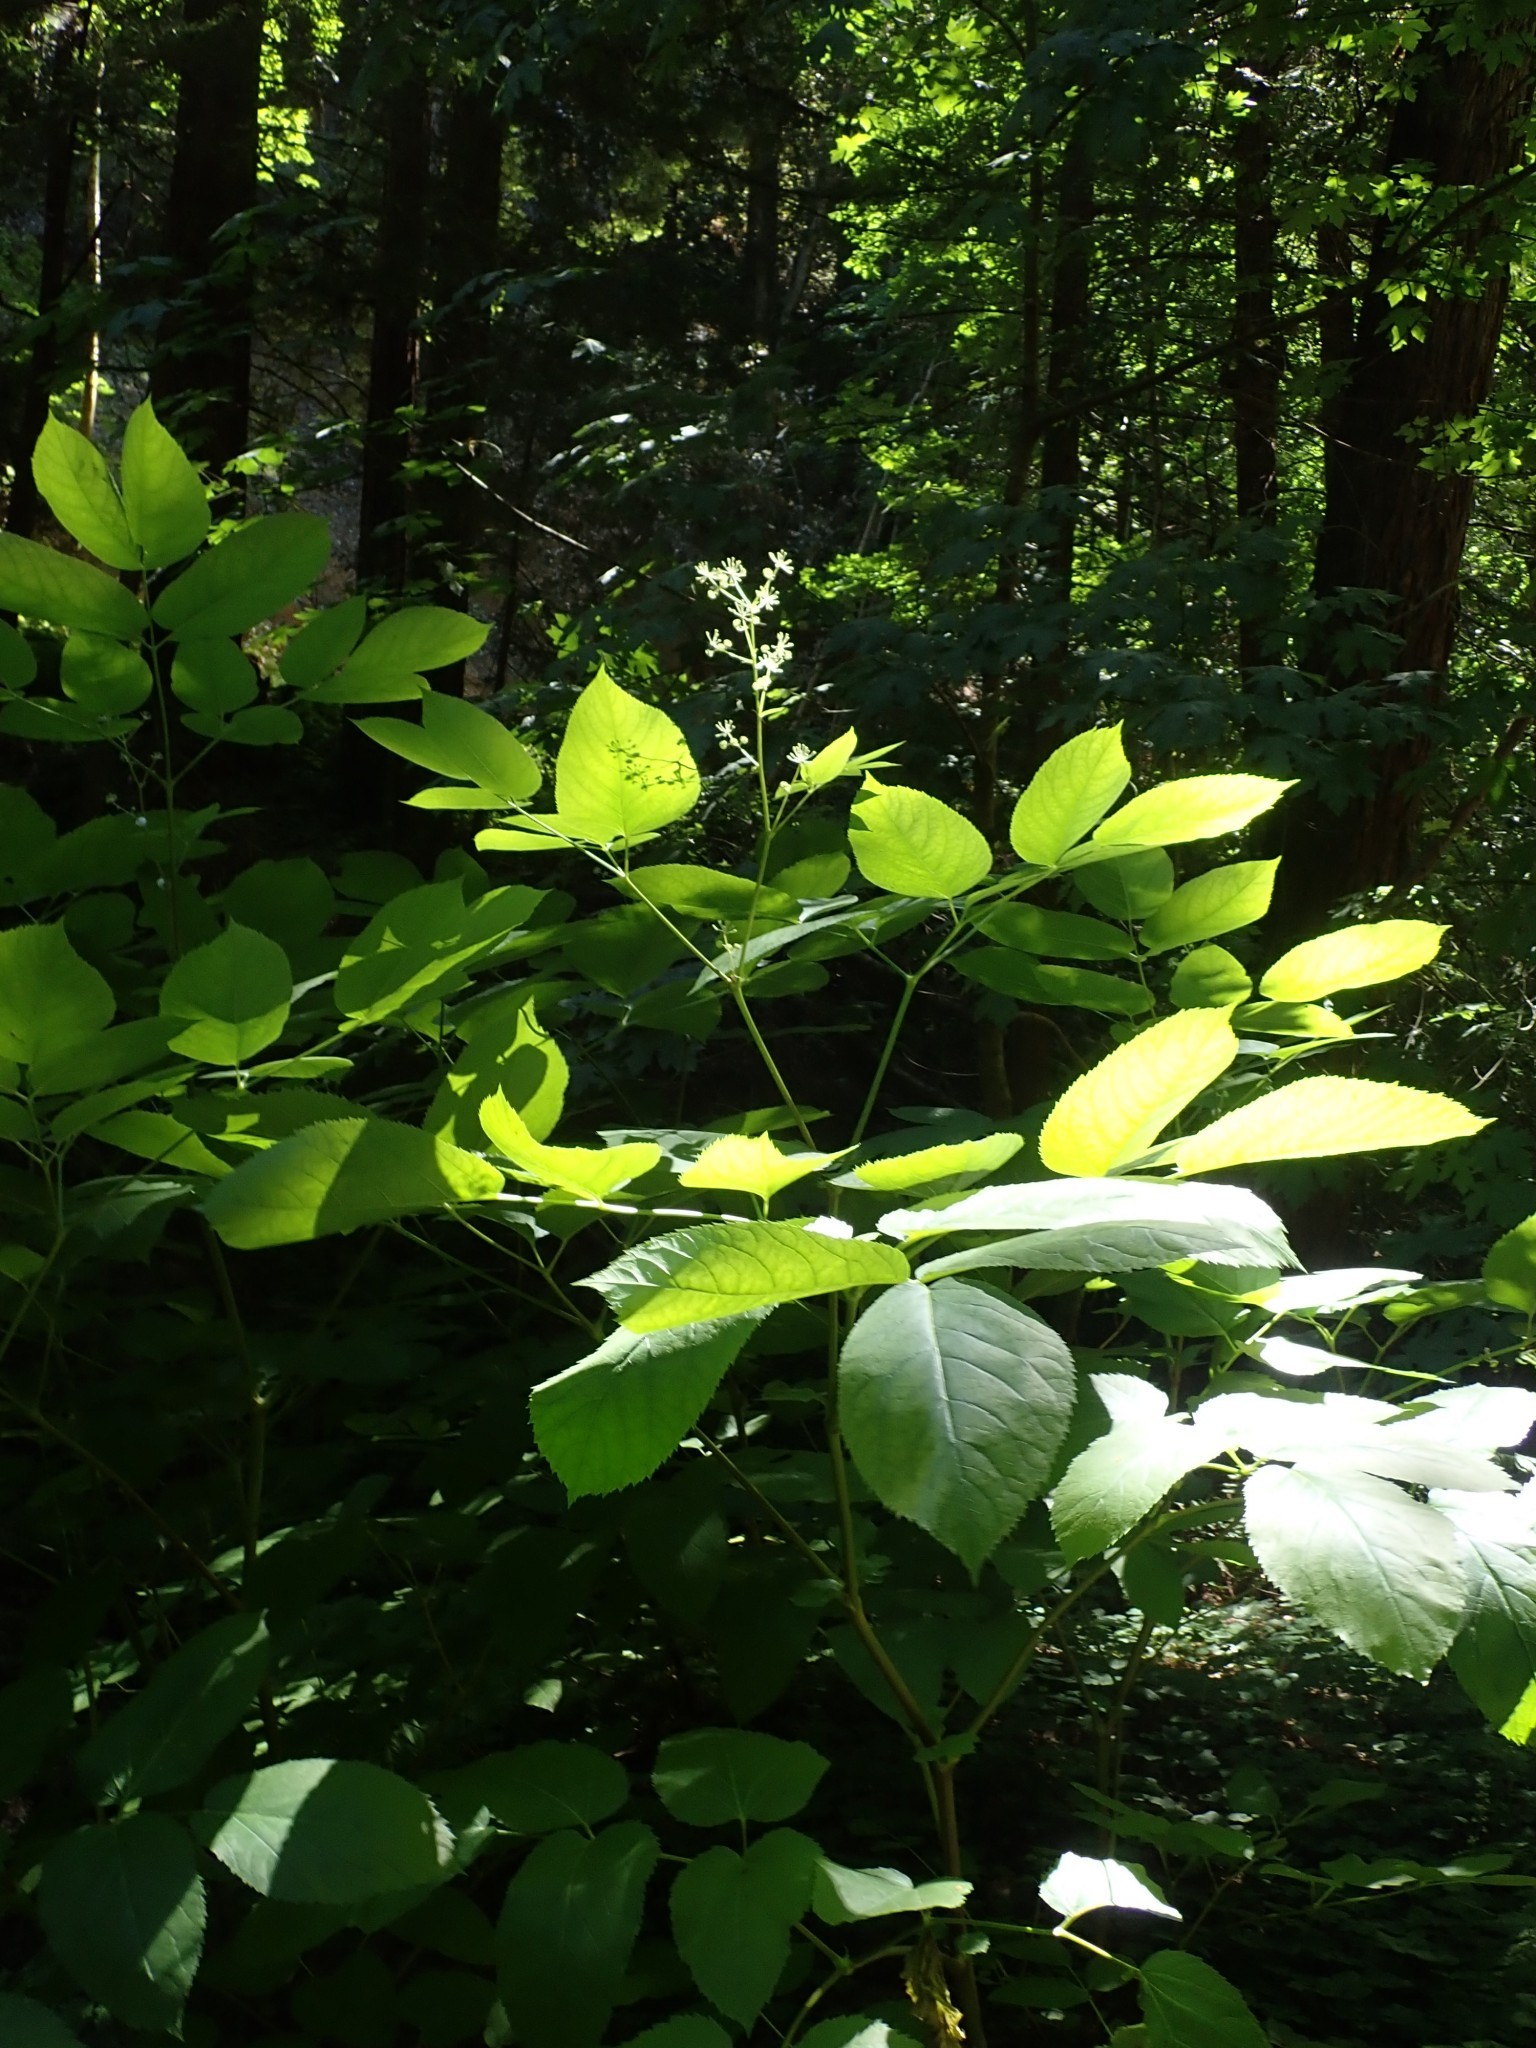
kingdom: Plantae
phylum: Tracheophyta
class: Magnoliopsida
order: Apiales
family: Araliaceae
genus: Aralia
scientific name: Aralia californica
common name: California-ginseng
